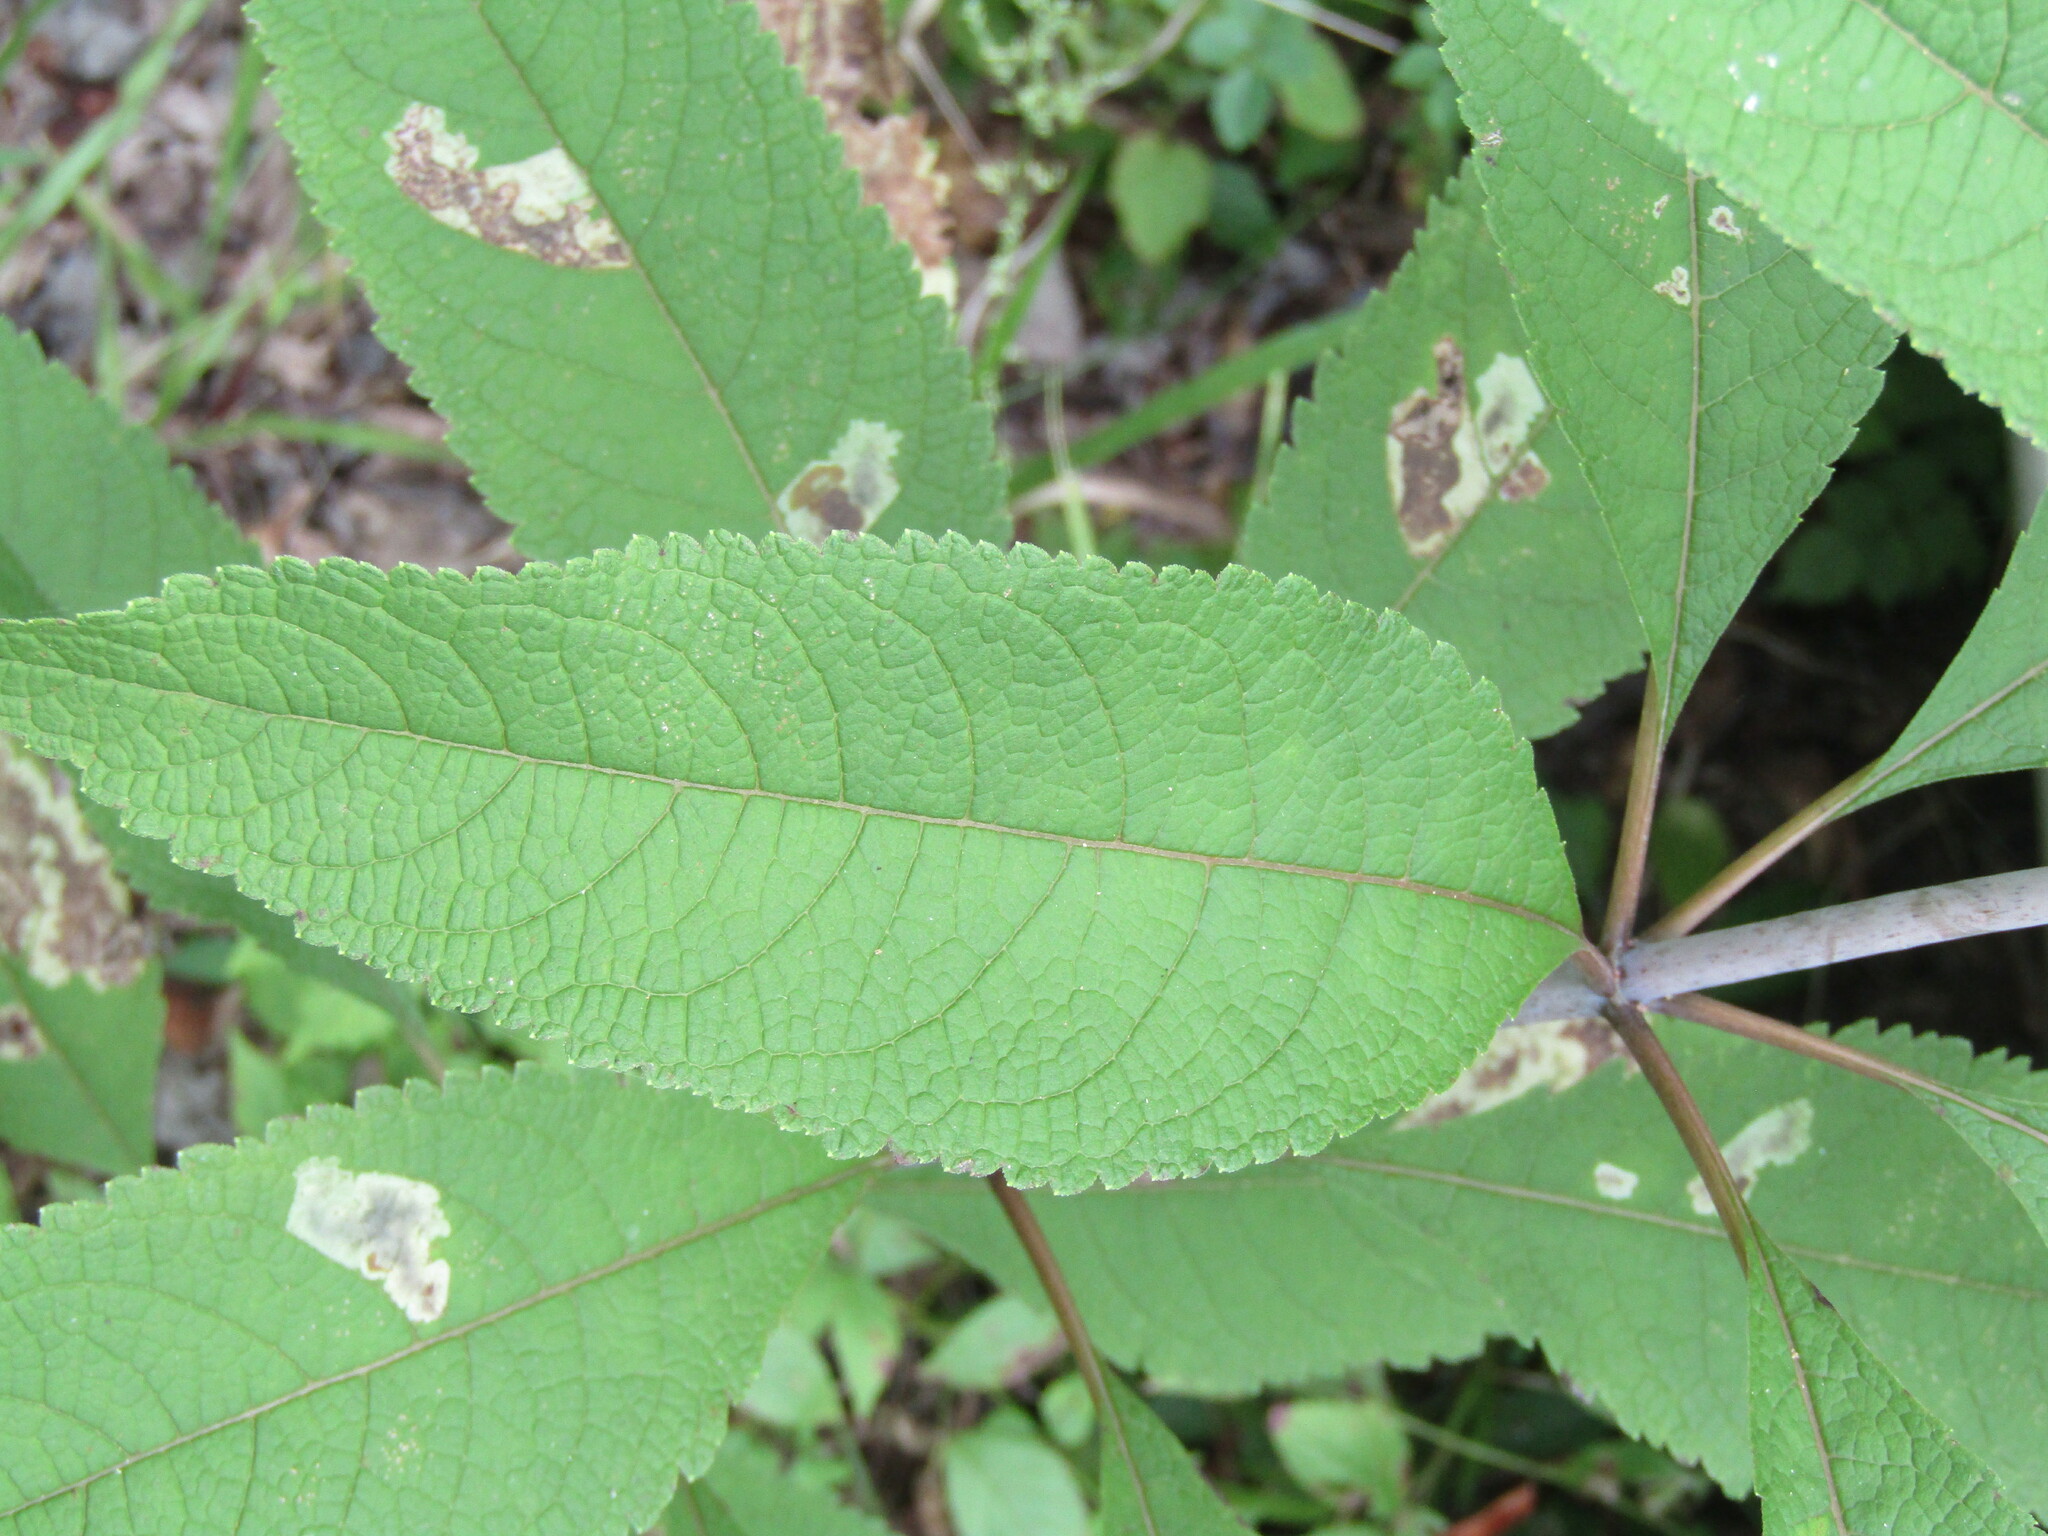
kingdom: Plantae
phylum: Tracheophyta
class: Magnoliopsida
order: Asterales
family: Asteraceae
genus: Eutrochium
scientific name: Eutrochium fistulosum
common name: Trumpetweed
